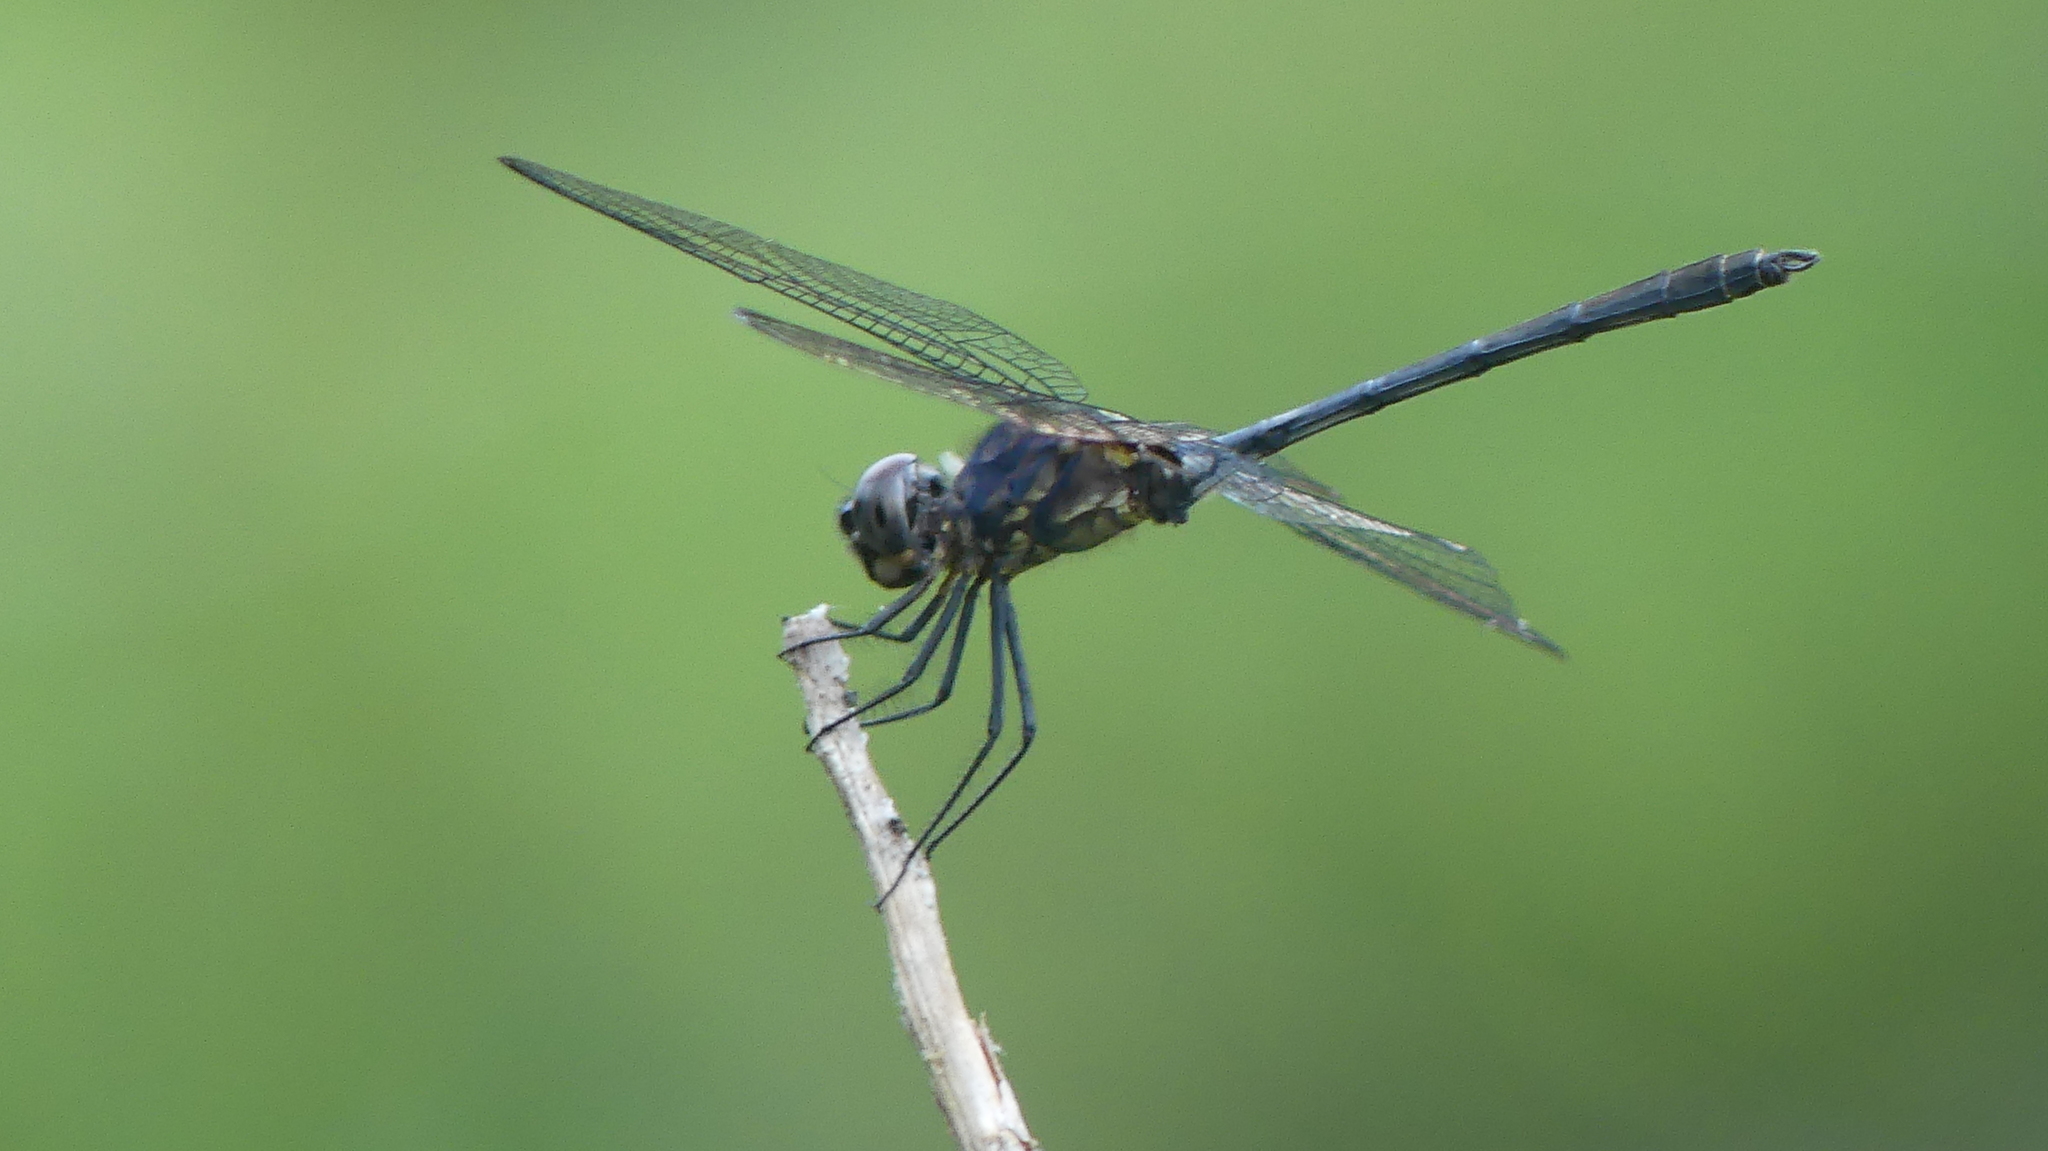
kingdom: Animalia
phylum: Arthropoda
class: Insecta
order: Odonata
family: Libellulidae
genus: Dythemis
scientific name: Dythemis nigrescens
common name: Black setwing
